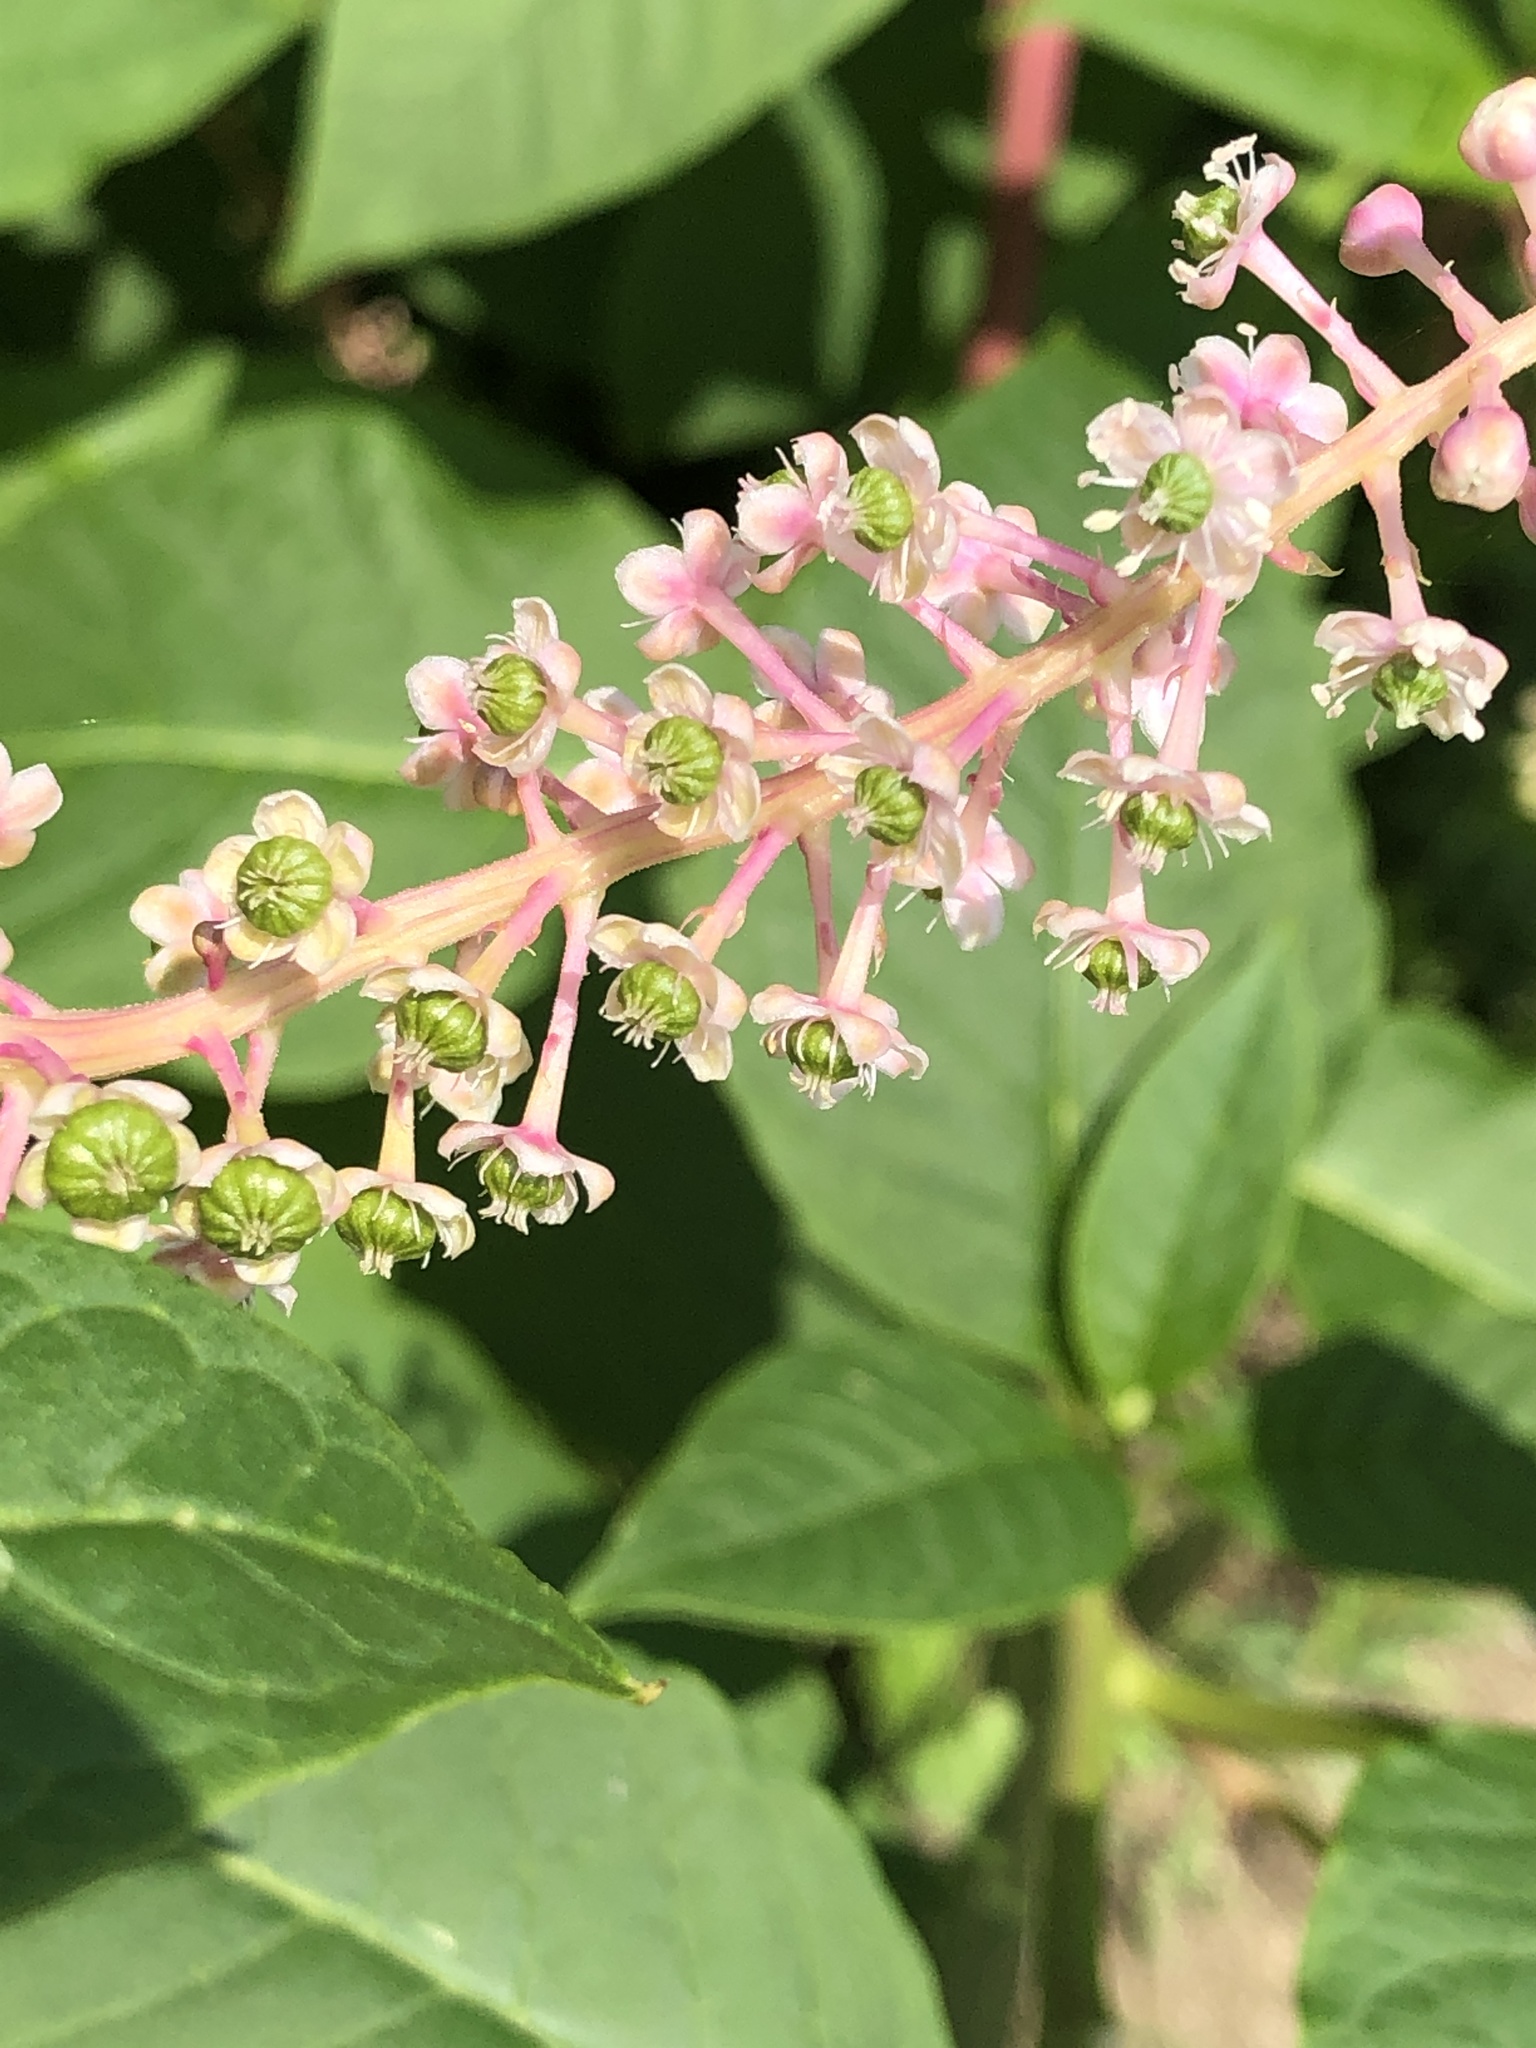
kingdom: Plantae
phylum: Tracheophyta
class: Magnoliopsida
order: Caryophyllales
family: Phytolaccaceae
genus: Phytolacca
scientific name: Phytolacca americana
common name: American pokeweed
